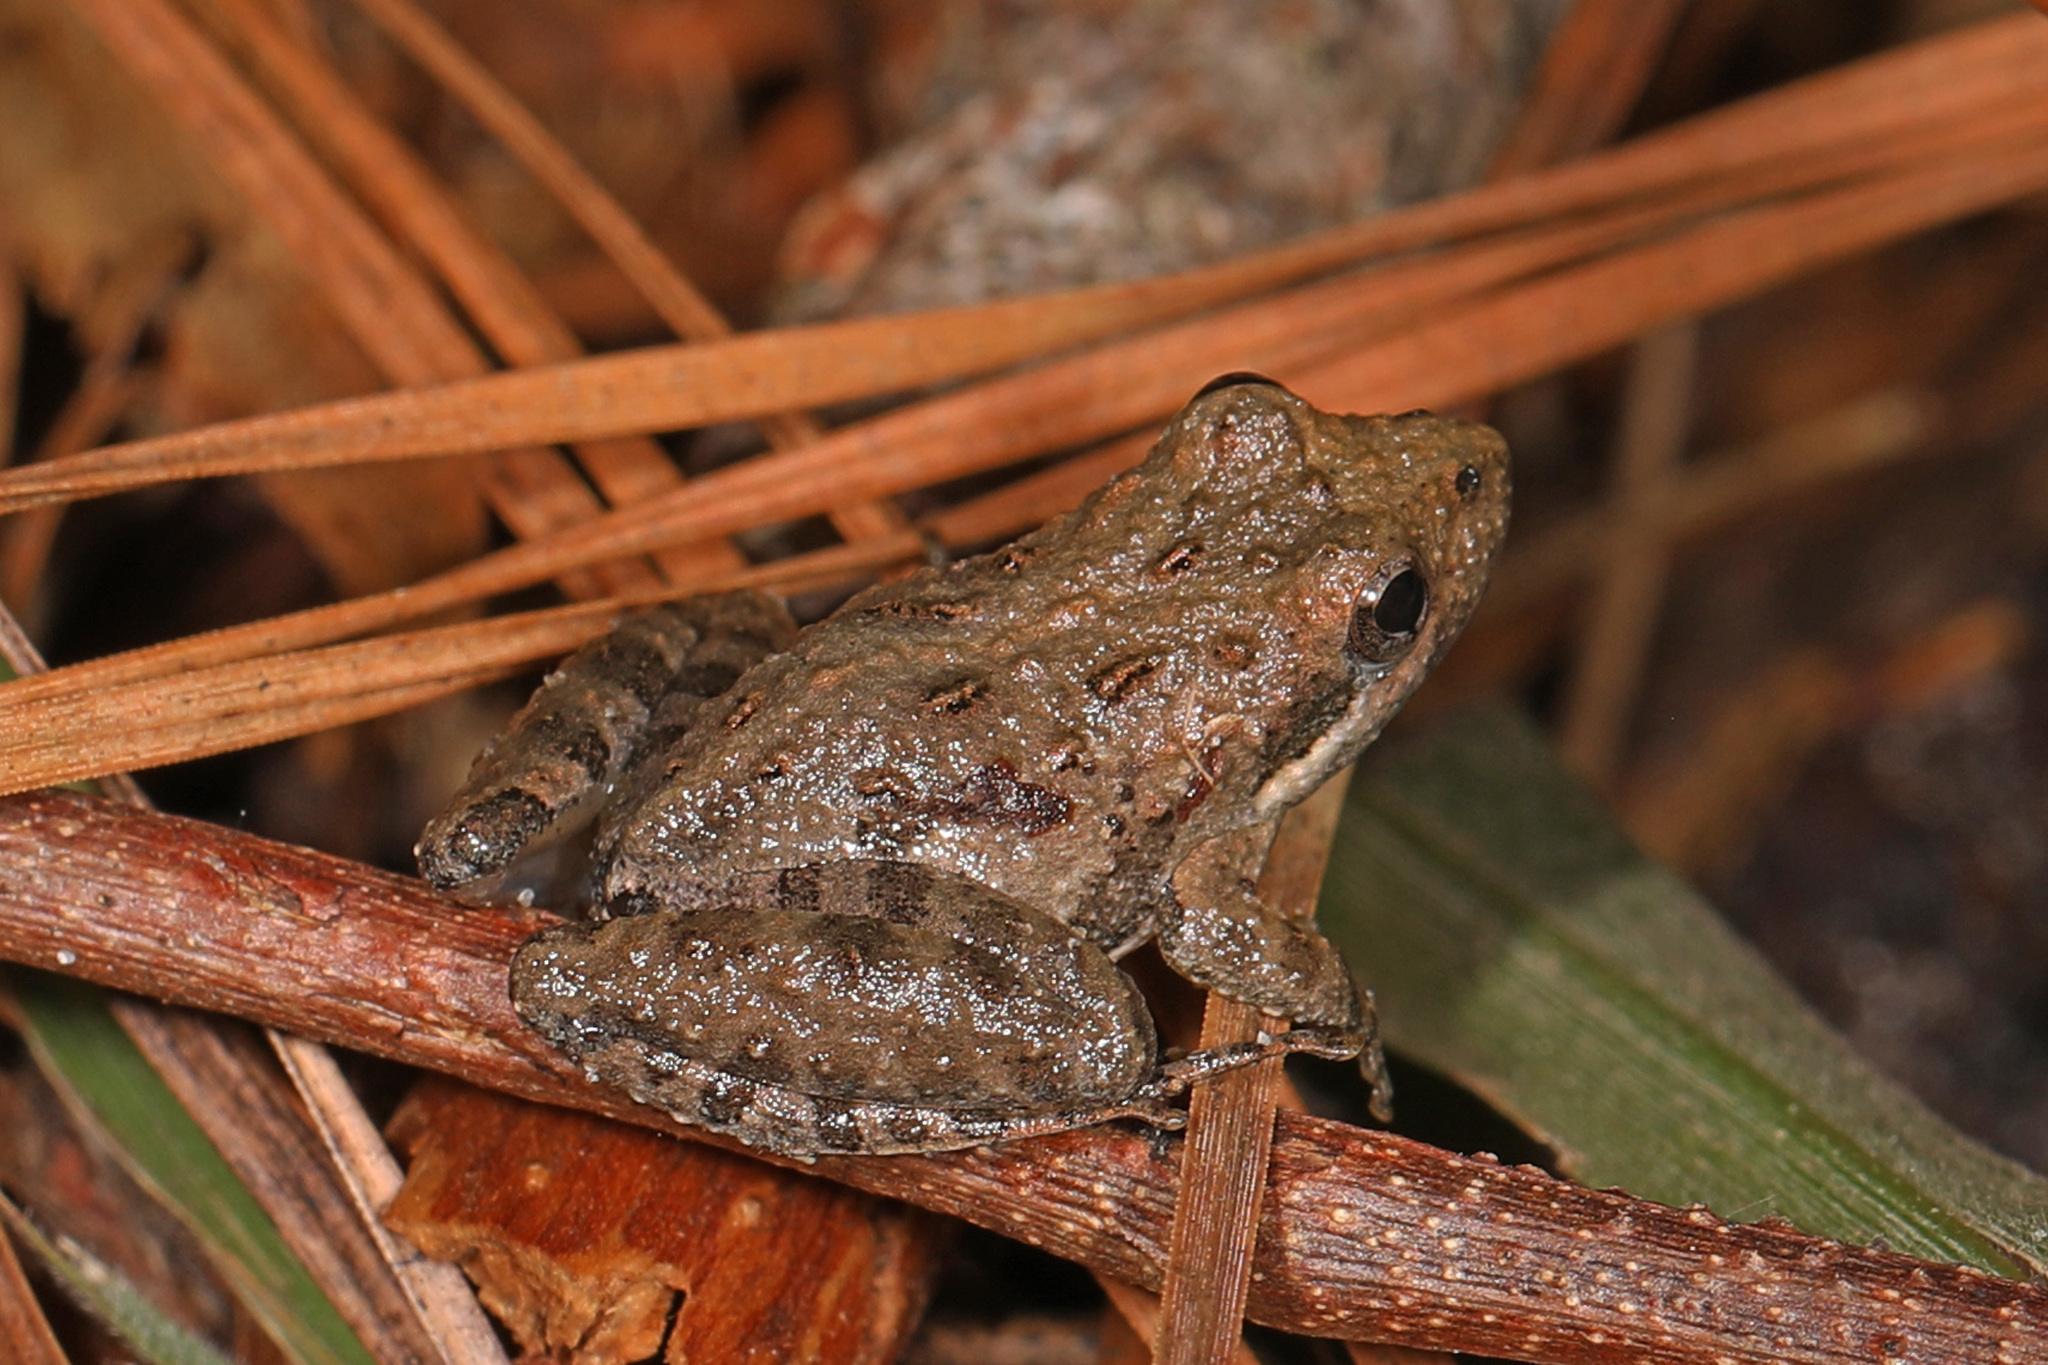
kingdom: Animalia
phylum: Chordata
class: Amphibia
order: Anura
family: Hylidae
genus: Acris
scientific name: Acris gryllus
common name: Southern cricket frog
